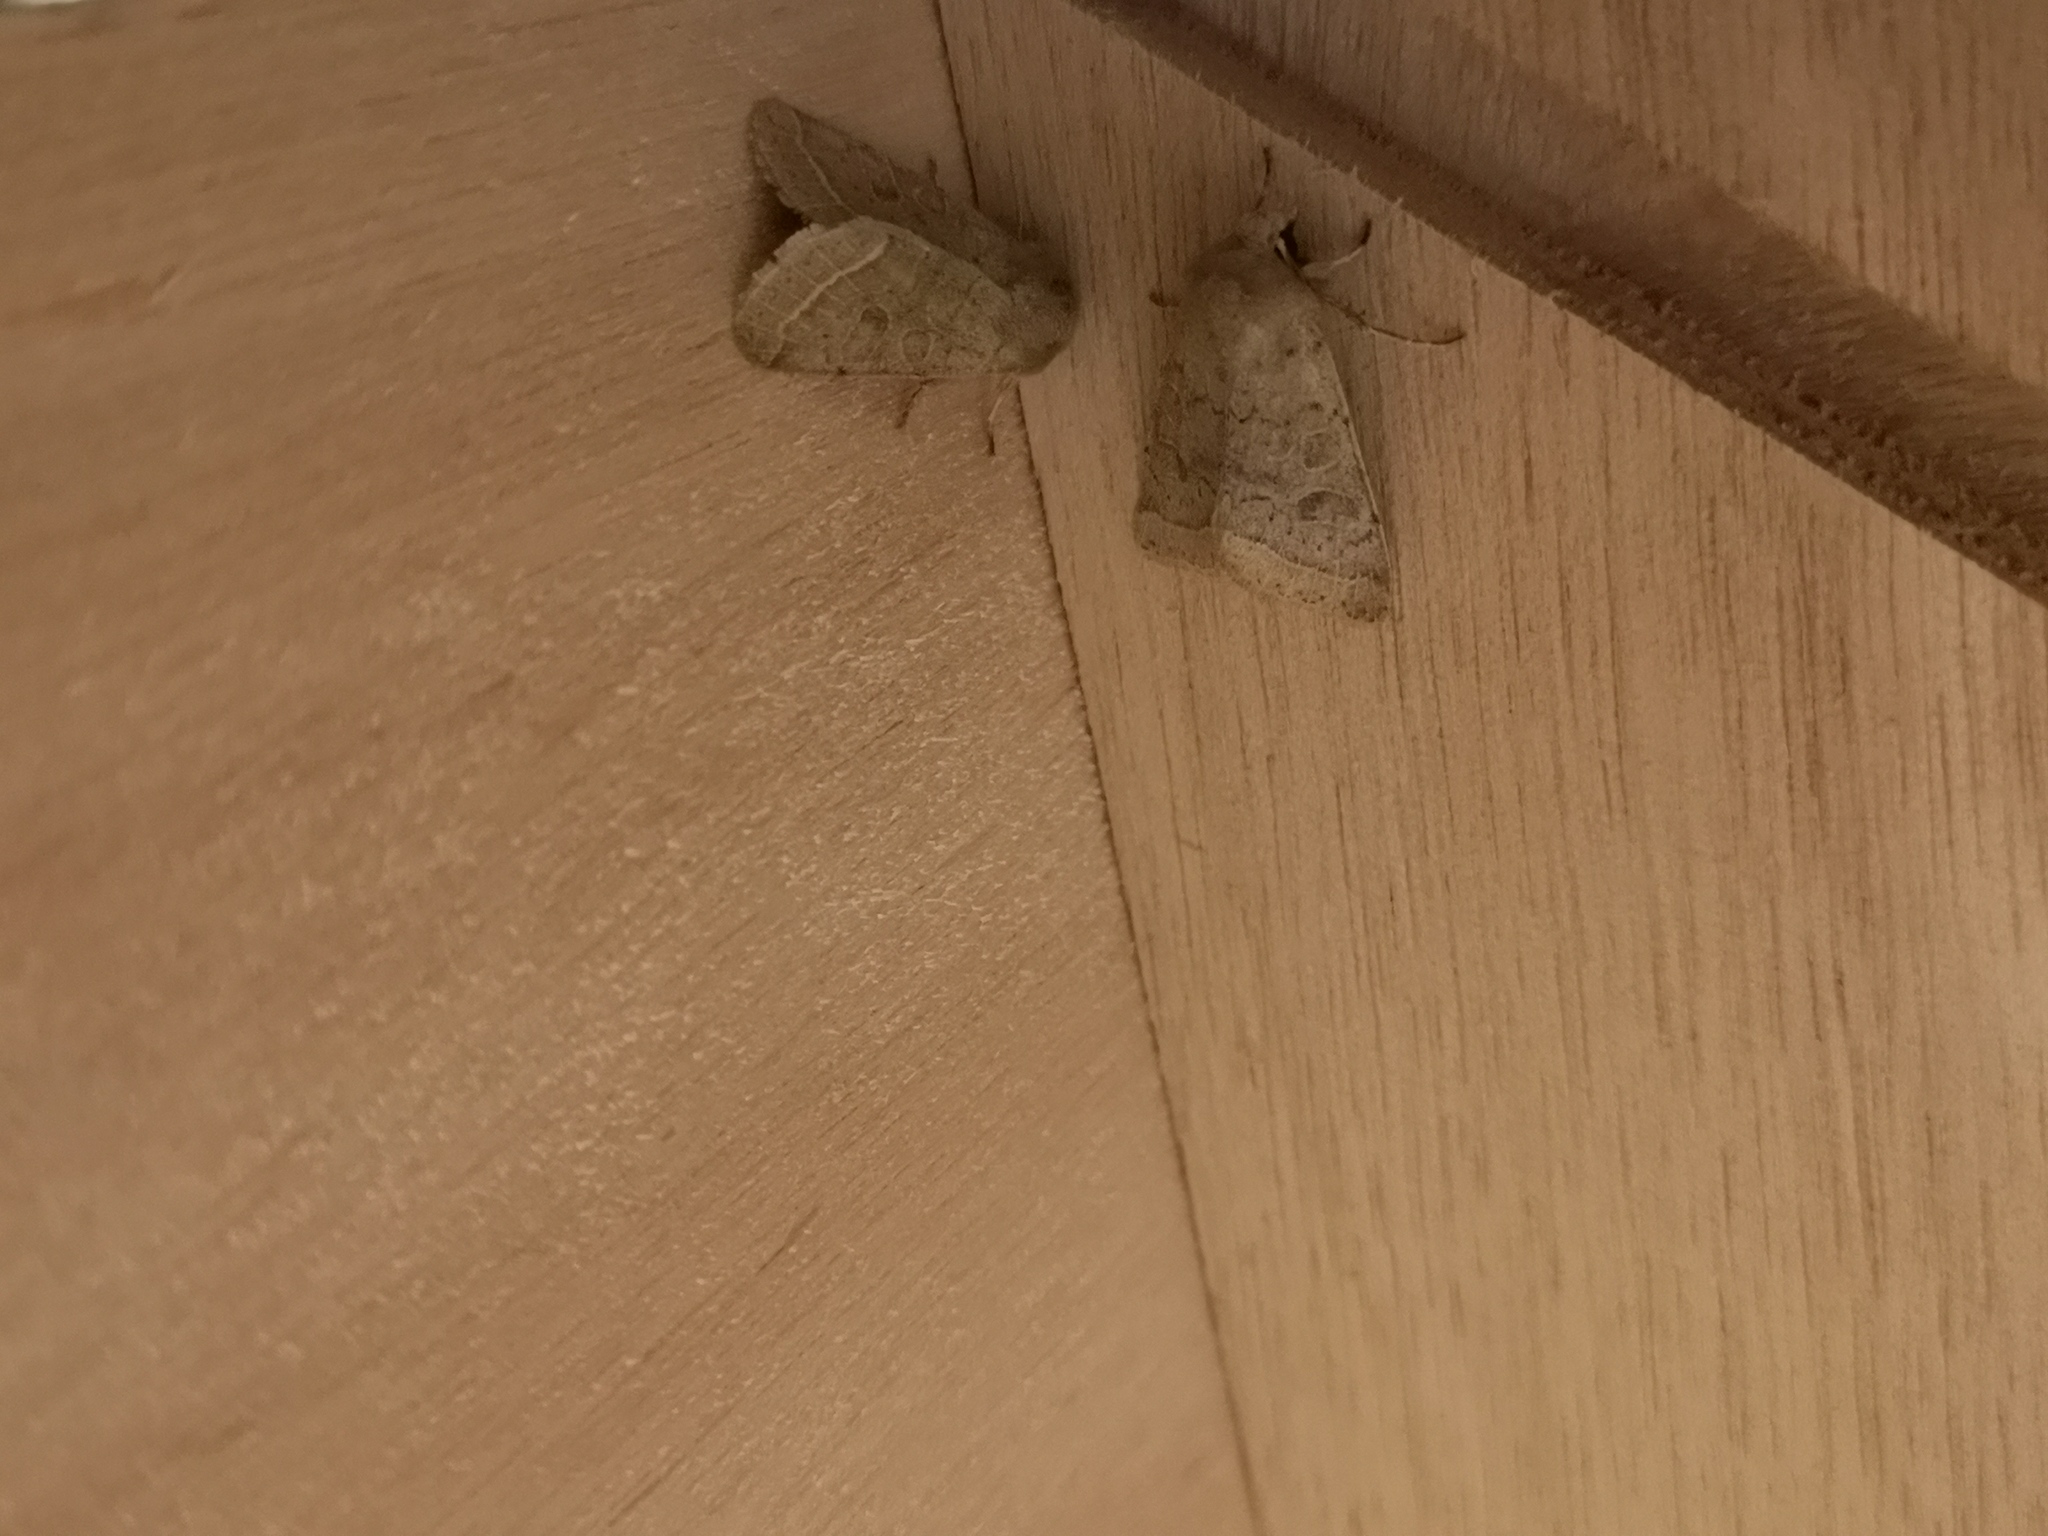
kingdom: Animalia
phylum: Arthropoda
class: Insecta
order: Lepidoptera
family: Noctuidae
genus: Orthosia
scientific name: Orthosia cerasi
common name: Common quaker
